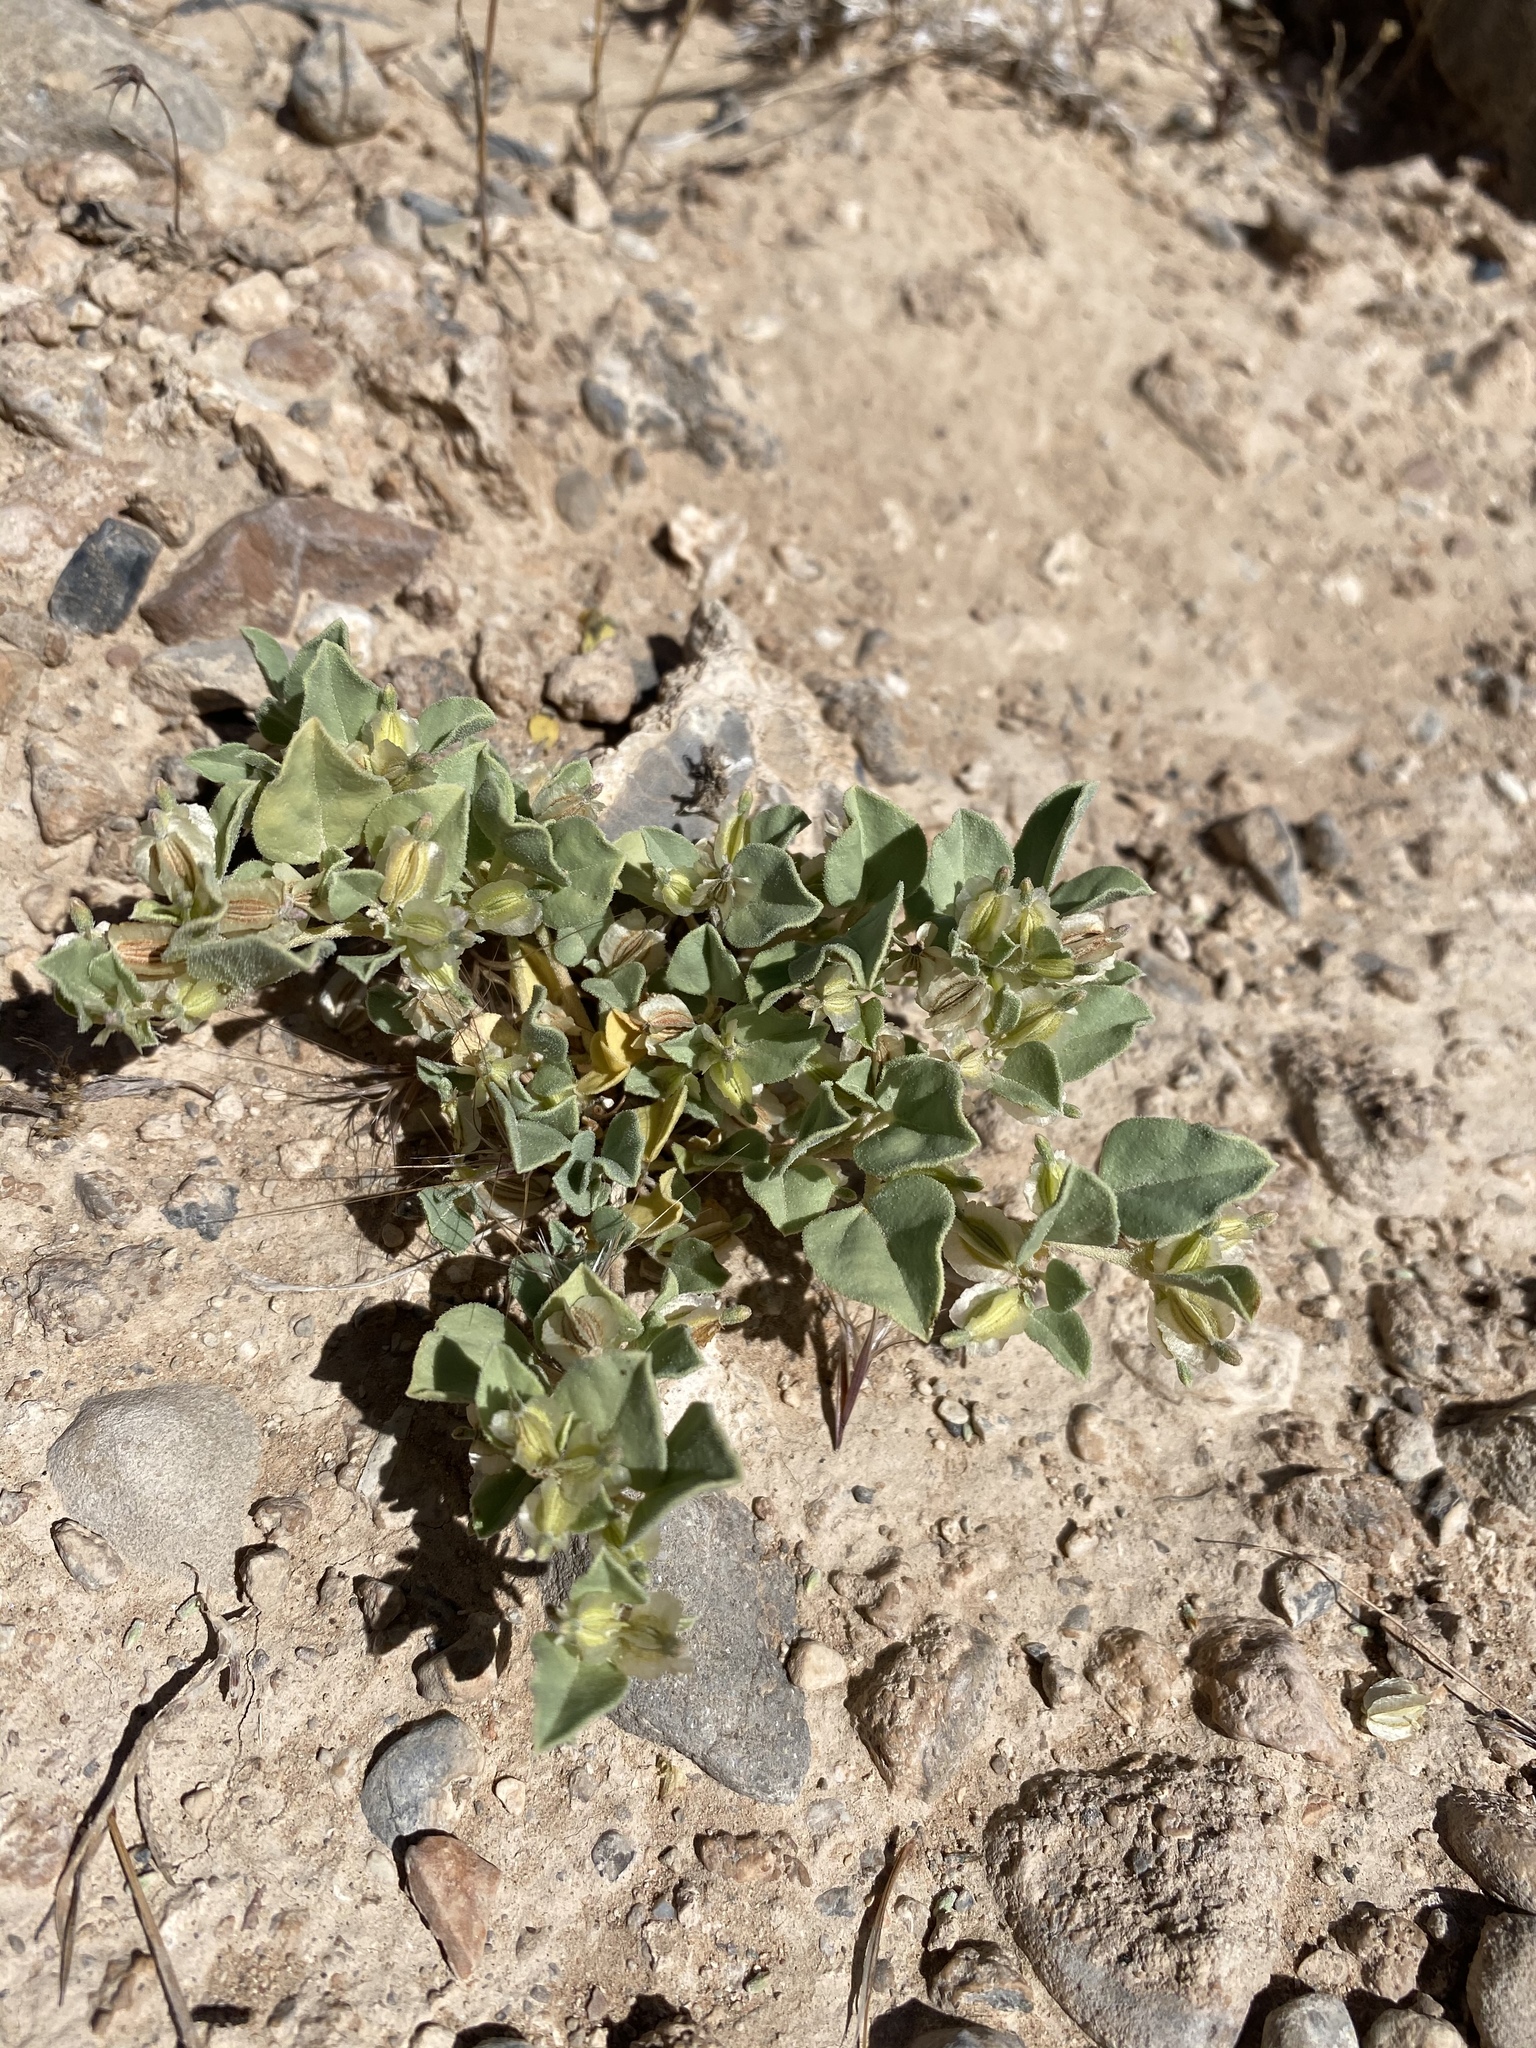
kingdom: Plantae
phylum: Tracheophyta
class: Magnoliopsida
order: Caryophyllales
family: Nyctaginaceae
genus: Acleisanthes
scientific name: Acleisanthes nevadensis
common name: Desert moonpod
